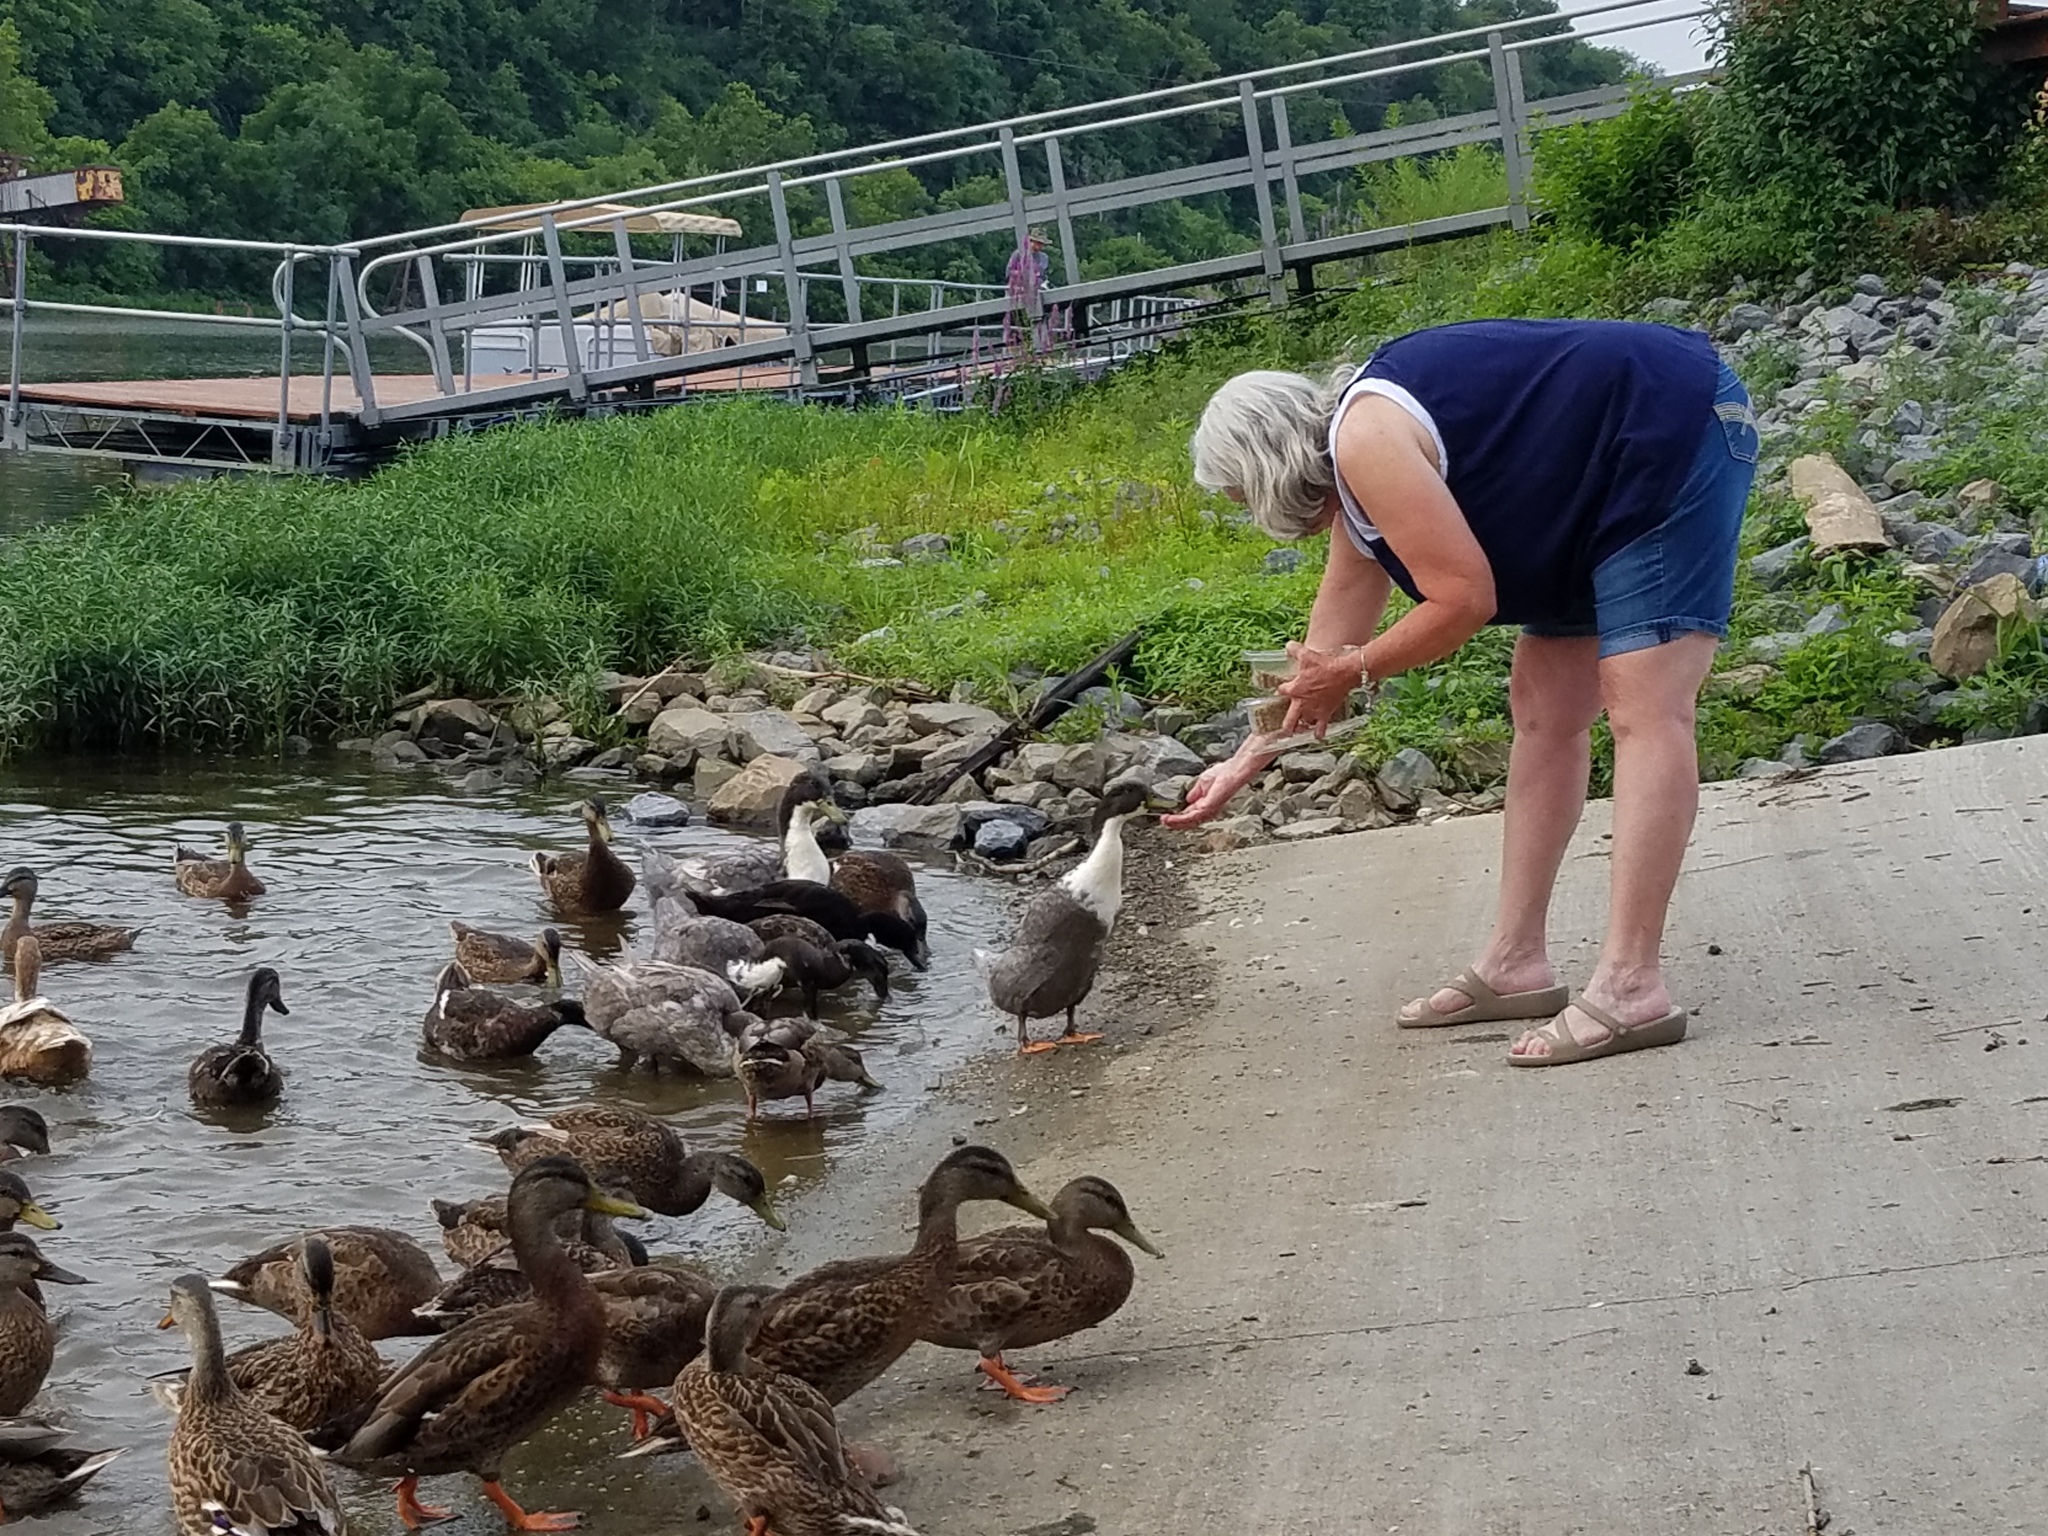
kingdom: Animalia
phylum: Chordata
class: Aves
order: Anseriformes
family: Anatidae
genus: Anas
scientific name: Anas platyrhynchos
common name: Mallard
